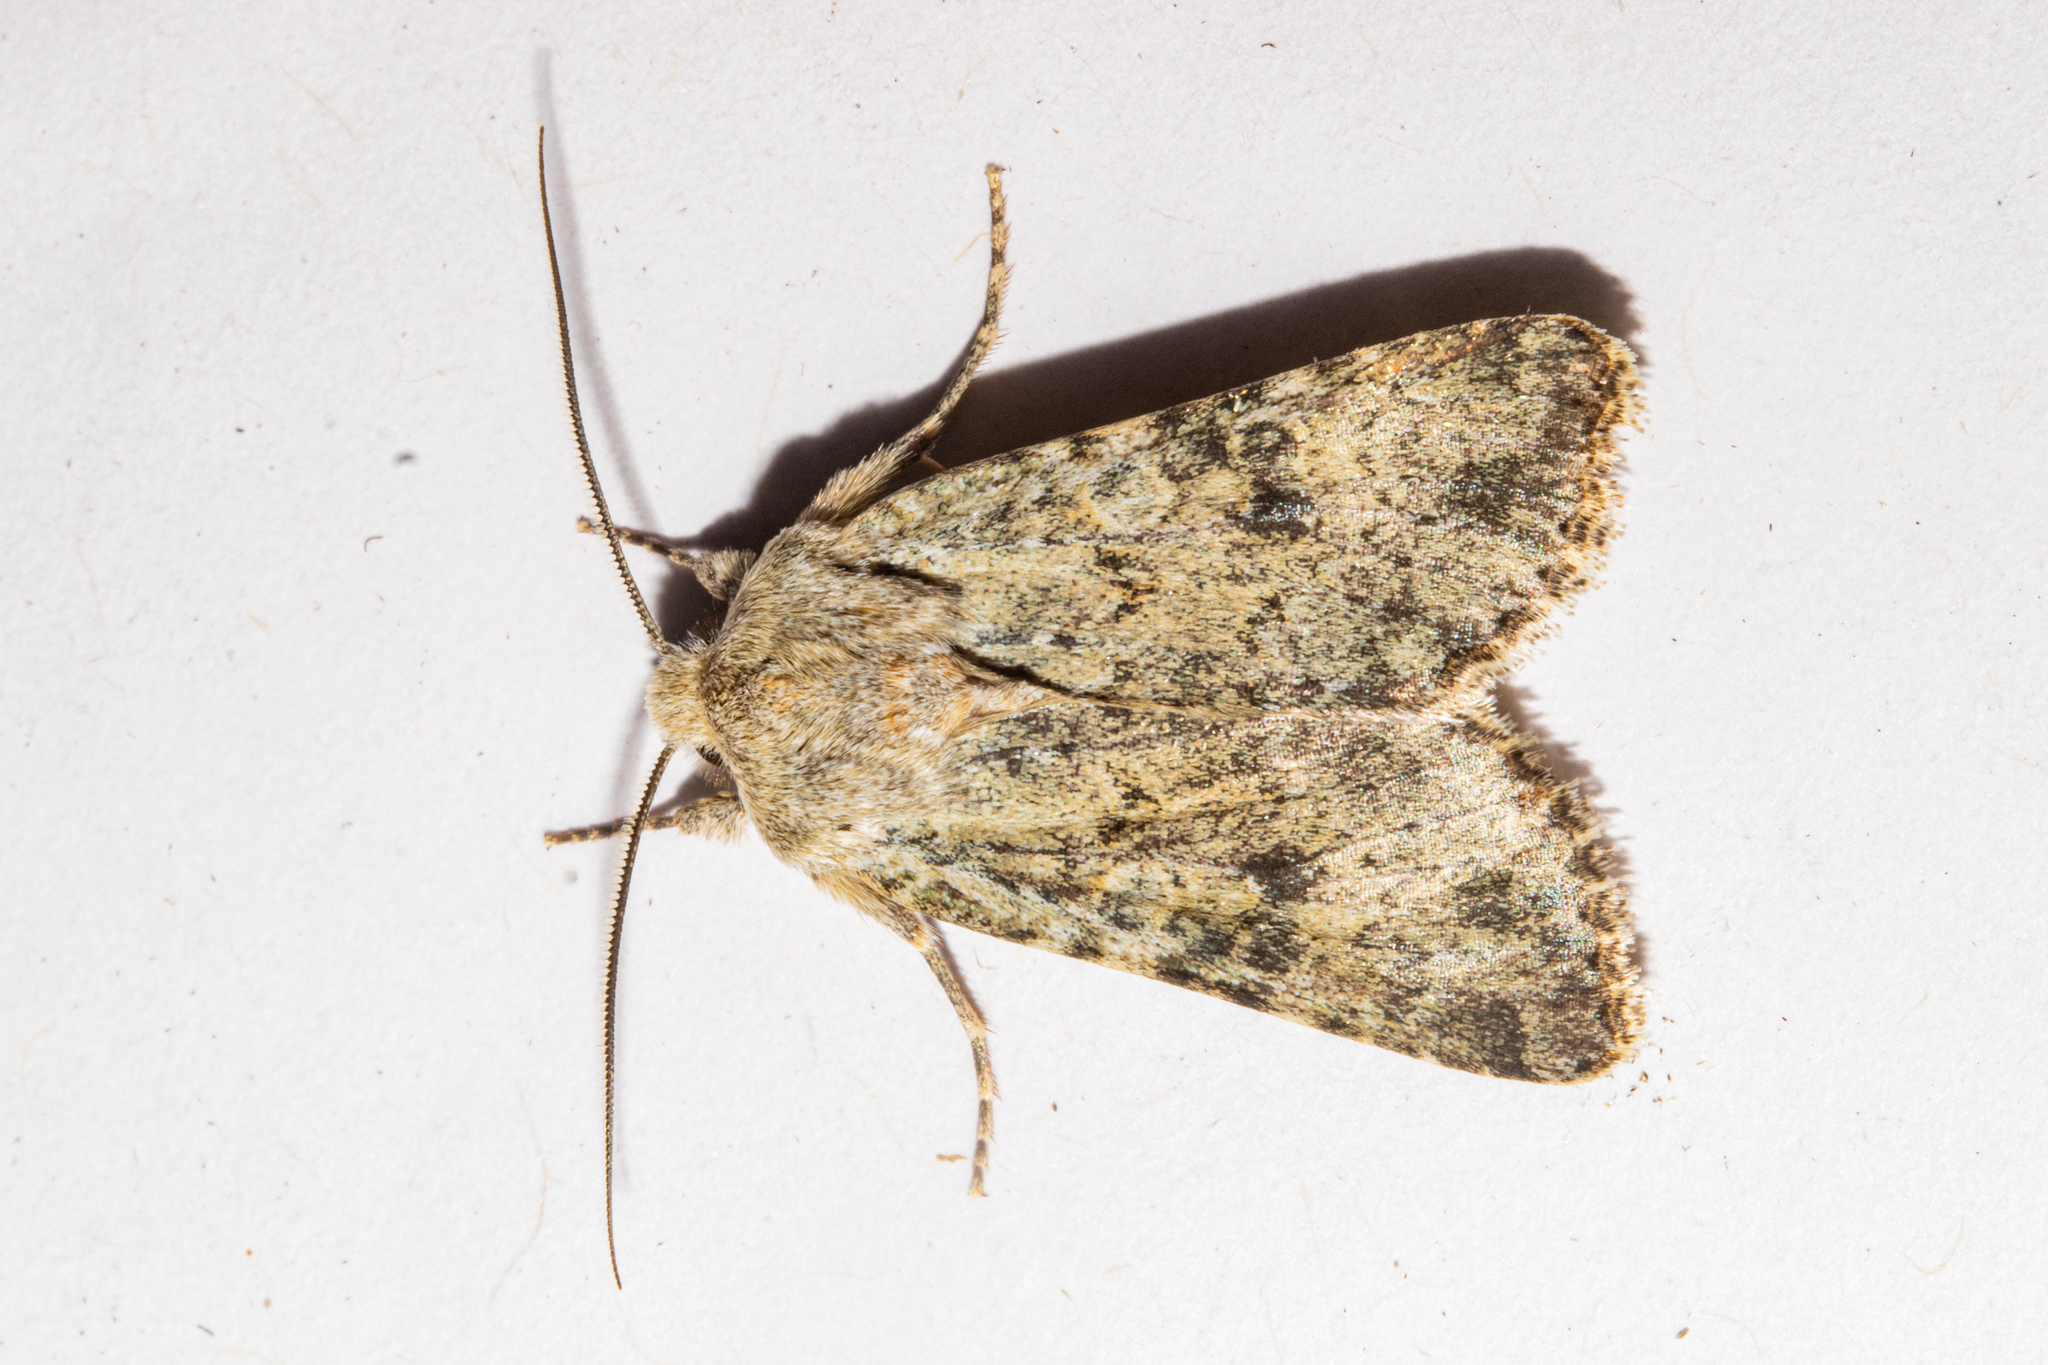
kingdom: Animalia
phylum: Arthropoda
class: Insecta
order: Lepidoptera
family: Noctuidae
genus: Ichneutica
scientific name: Ichneutica cuneata
